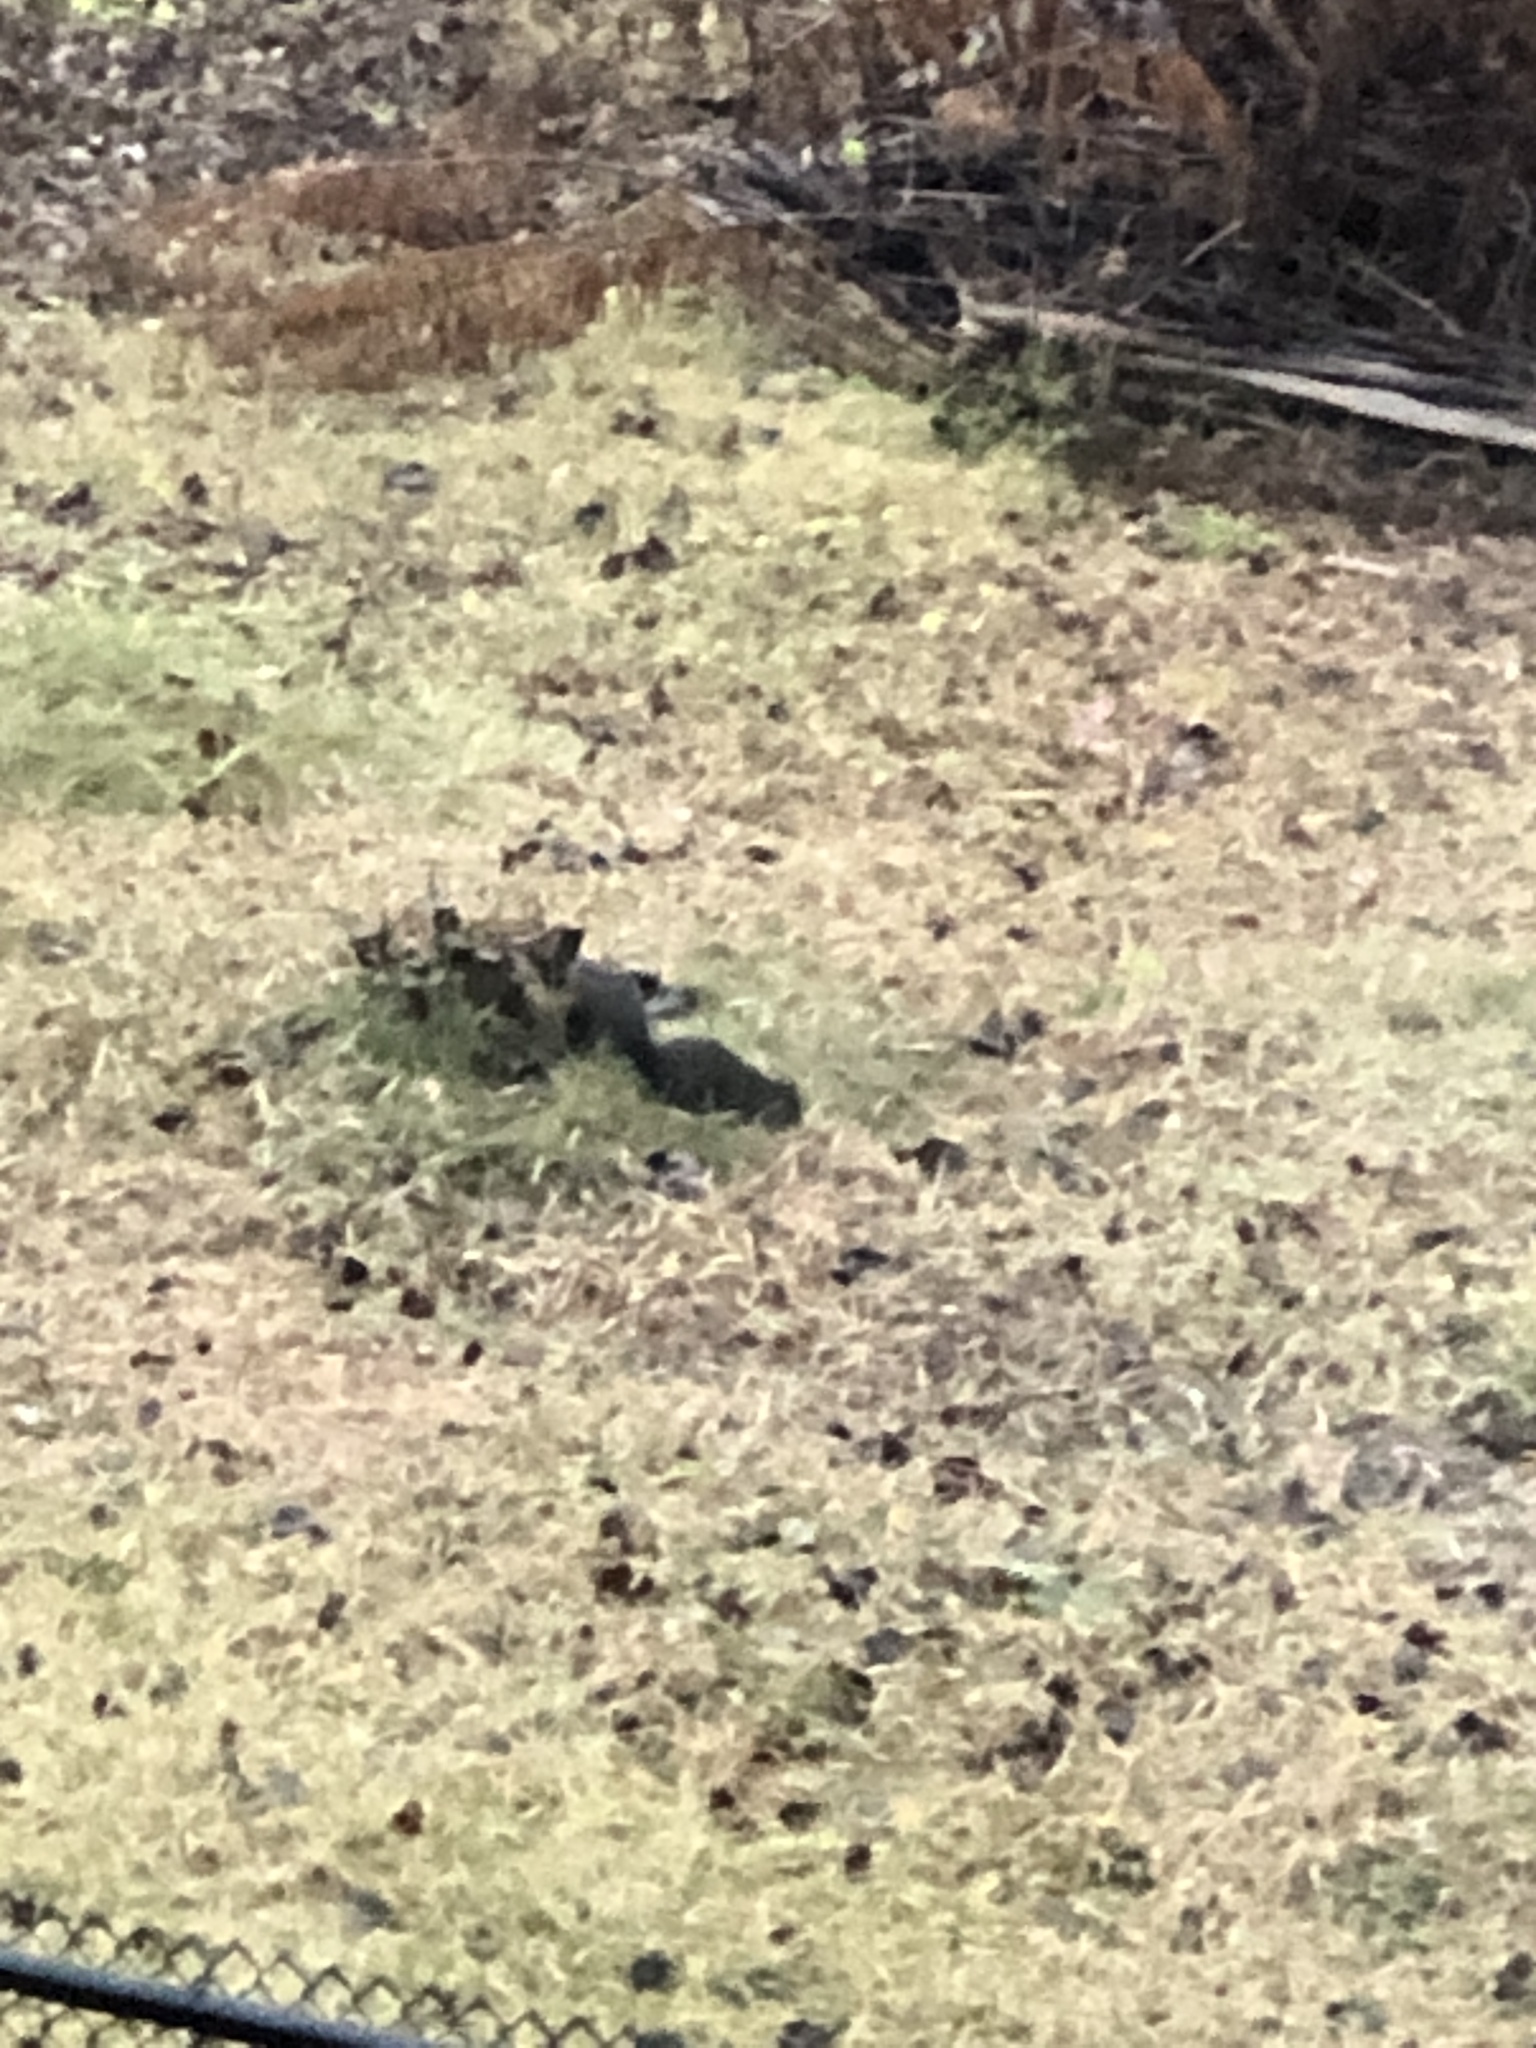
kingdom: Animalia
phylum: Chordata
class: Mammalia
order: Rodentia
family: Sciuridae
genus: Sciurus
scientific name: Sciurus carolinensis
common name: Eastern gray squirrel
